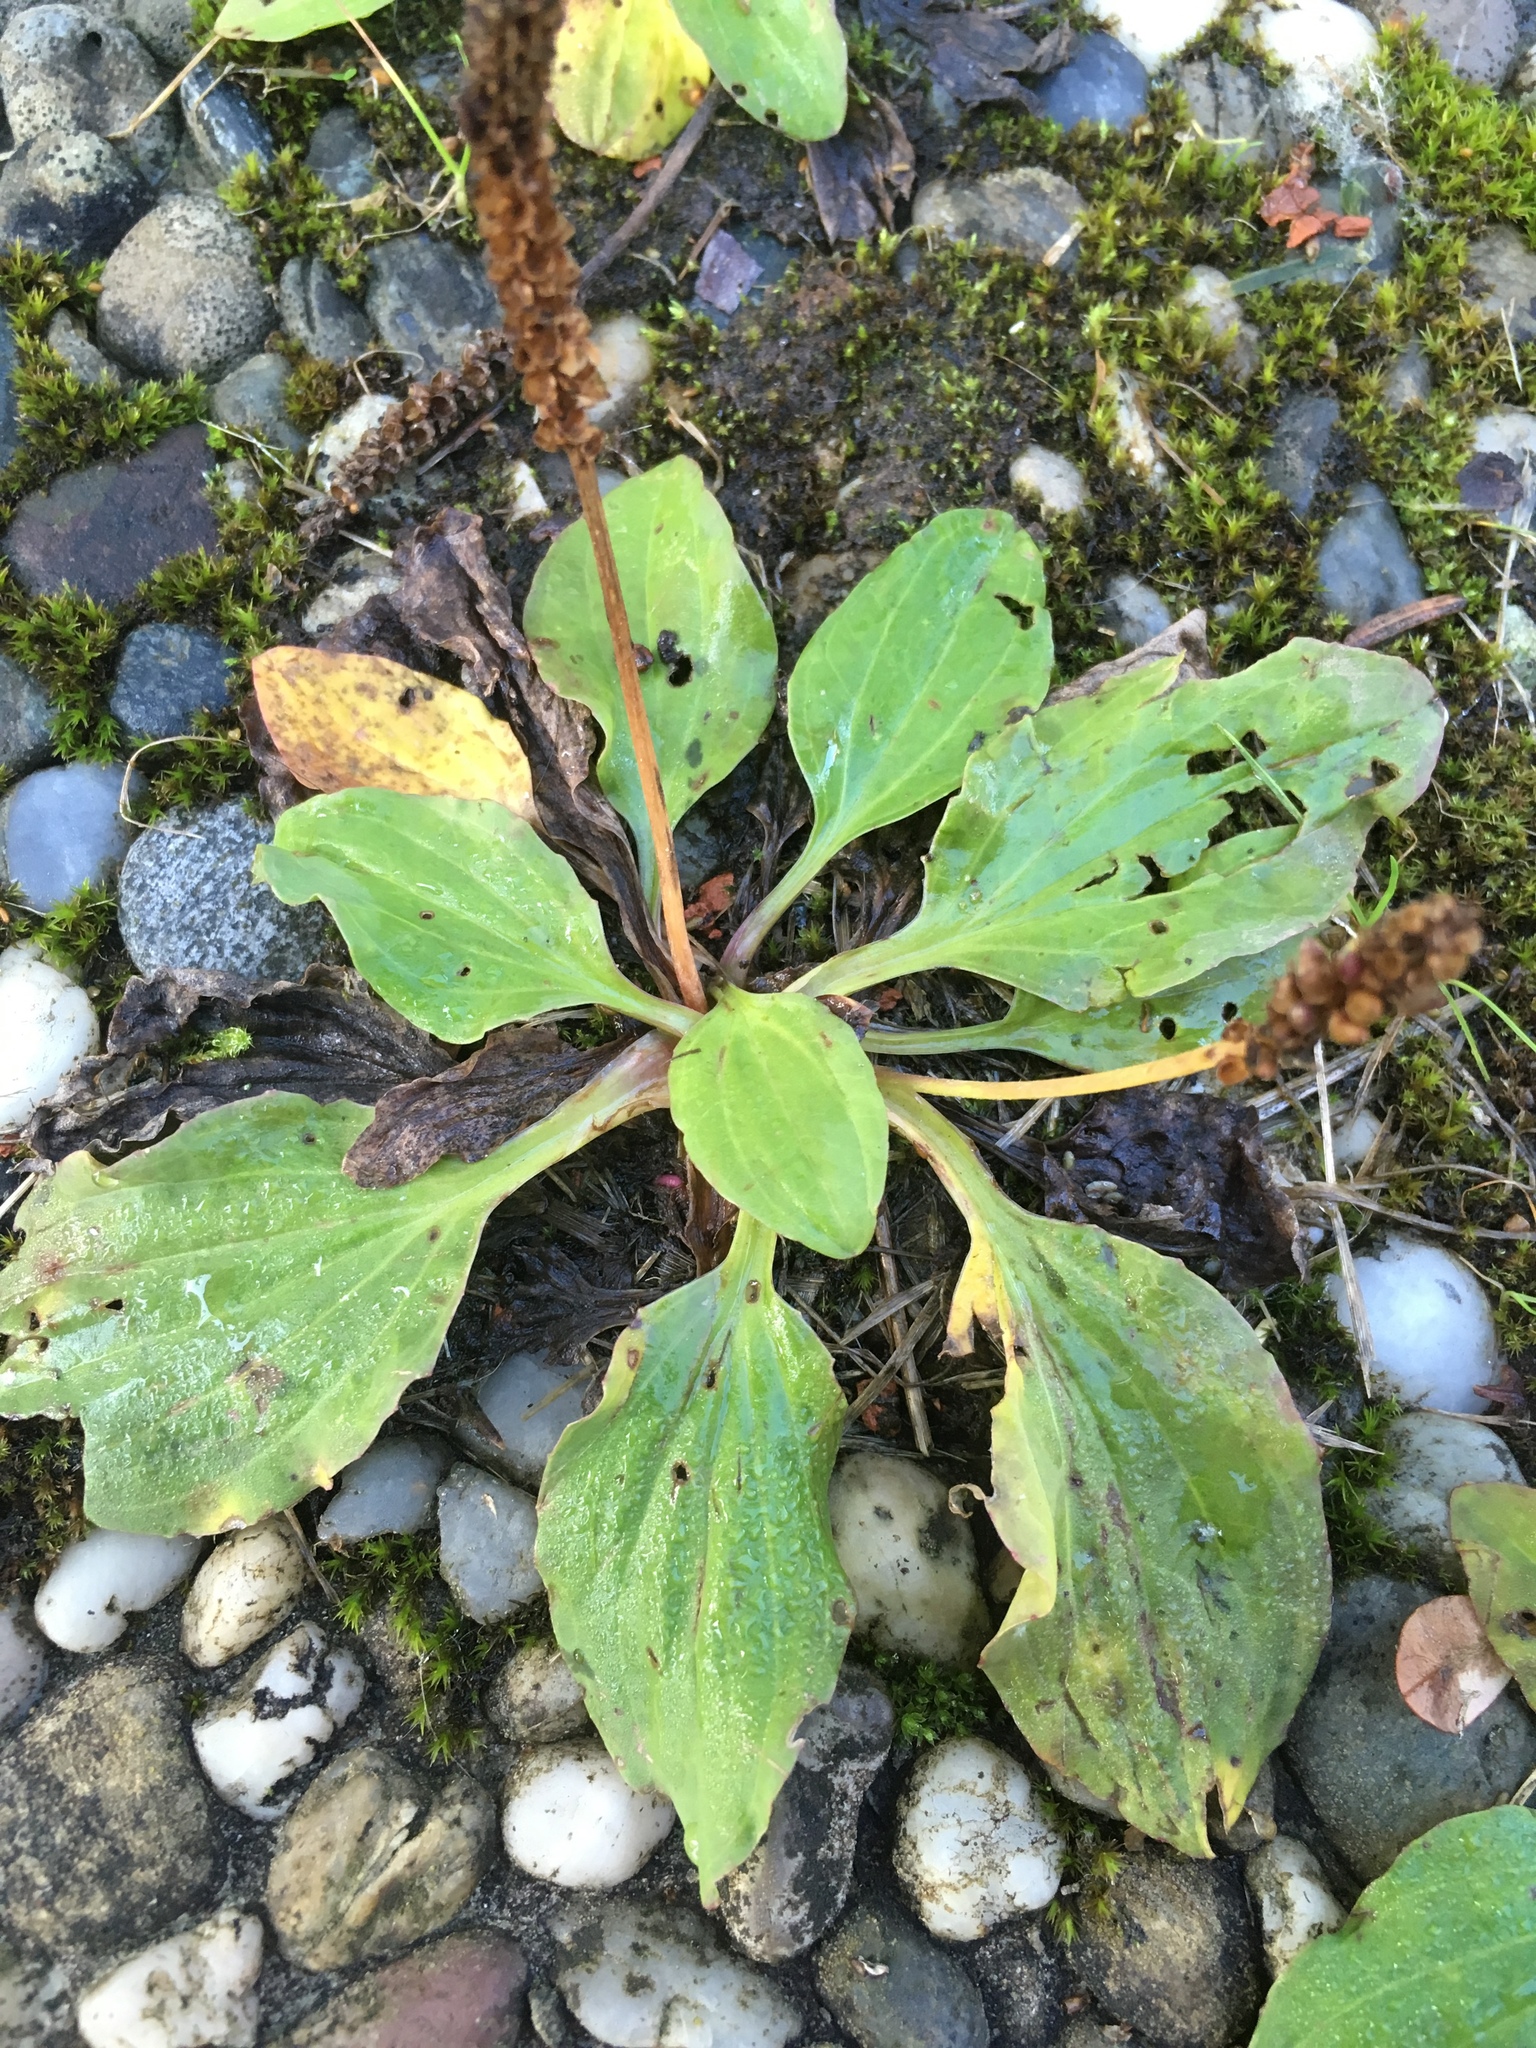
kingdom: Plantae
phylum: Tracheophyta
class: Magnoliopsida
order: Lamiales
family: Plantaginaceae
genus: Plantago
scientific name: Plantago major
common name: Common plantain
